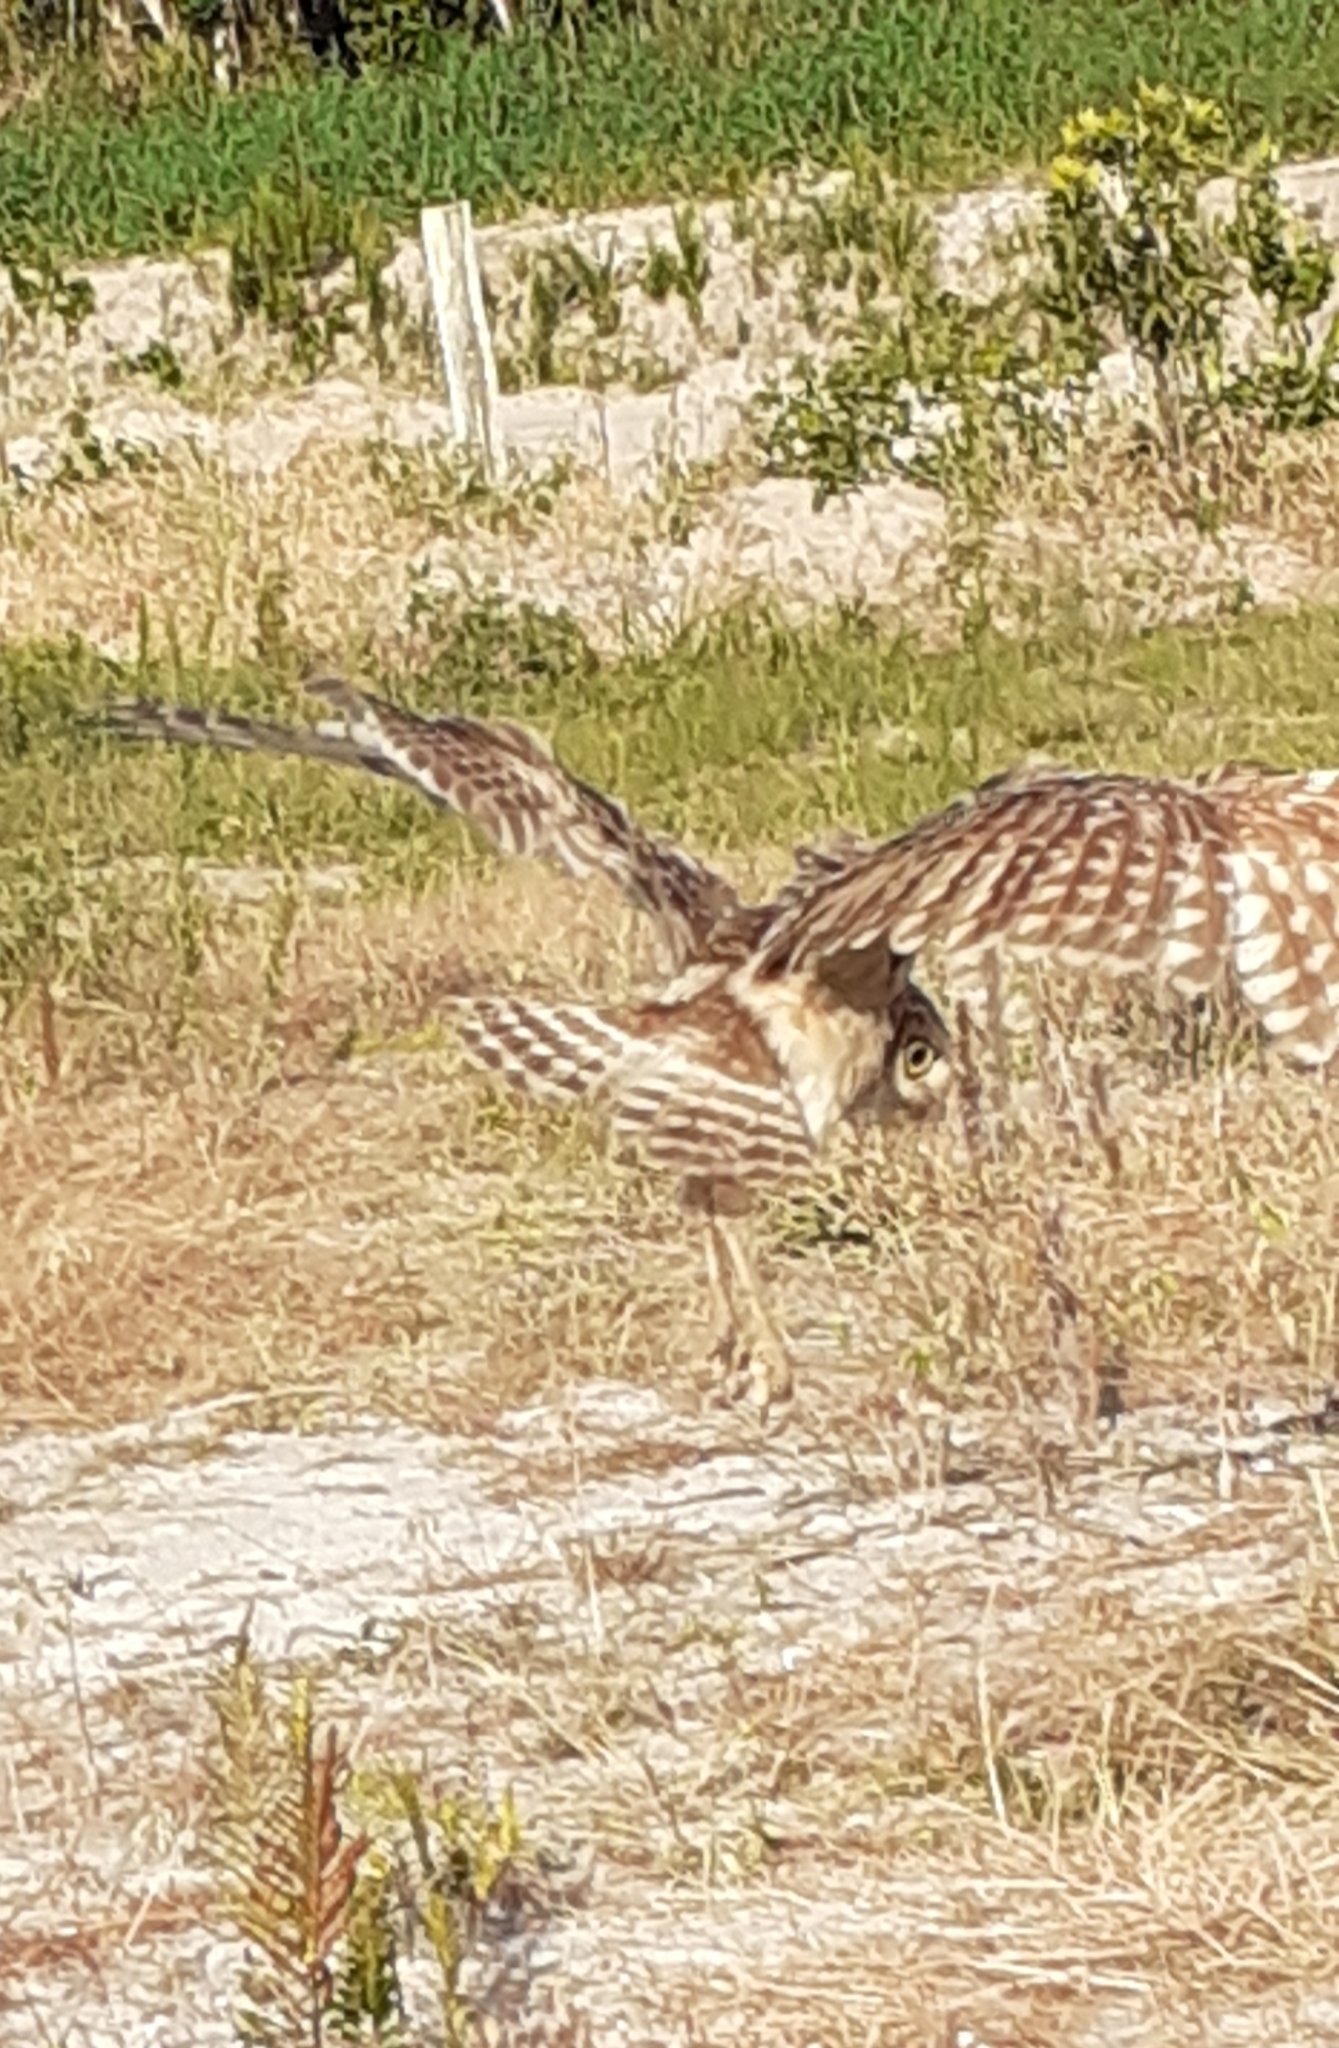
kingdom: Animalia
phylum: Chordata
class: Aves
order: Strigiformes
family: Strigidae
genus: Athene
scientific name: Athene cunicularia
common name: Burrowing owl
